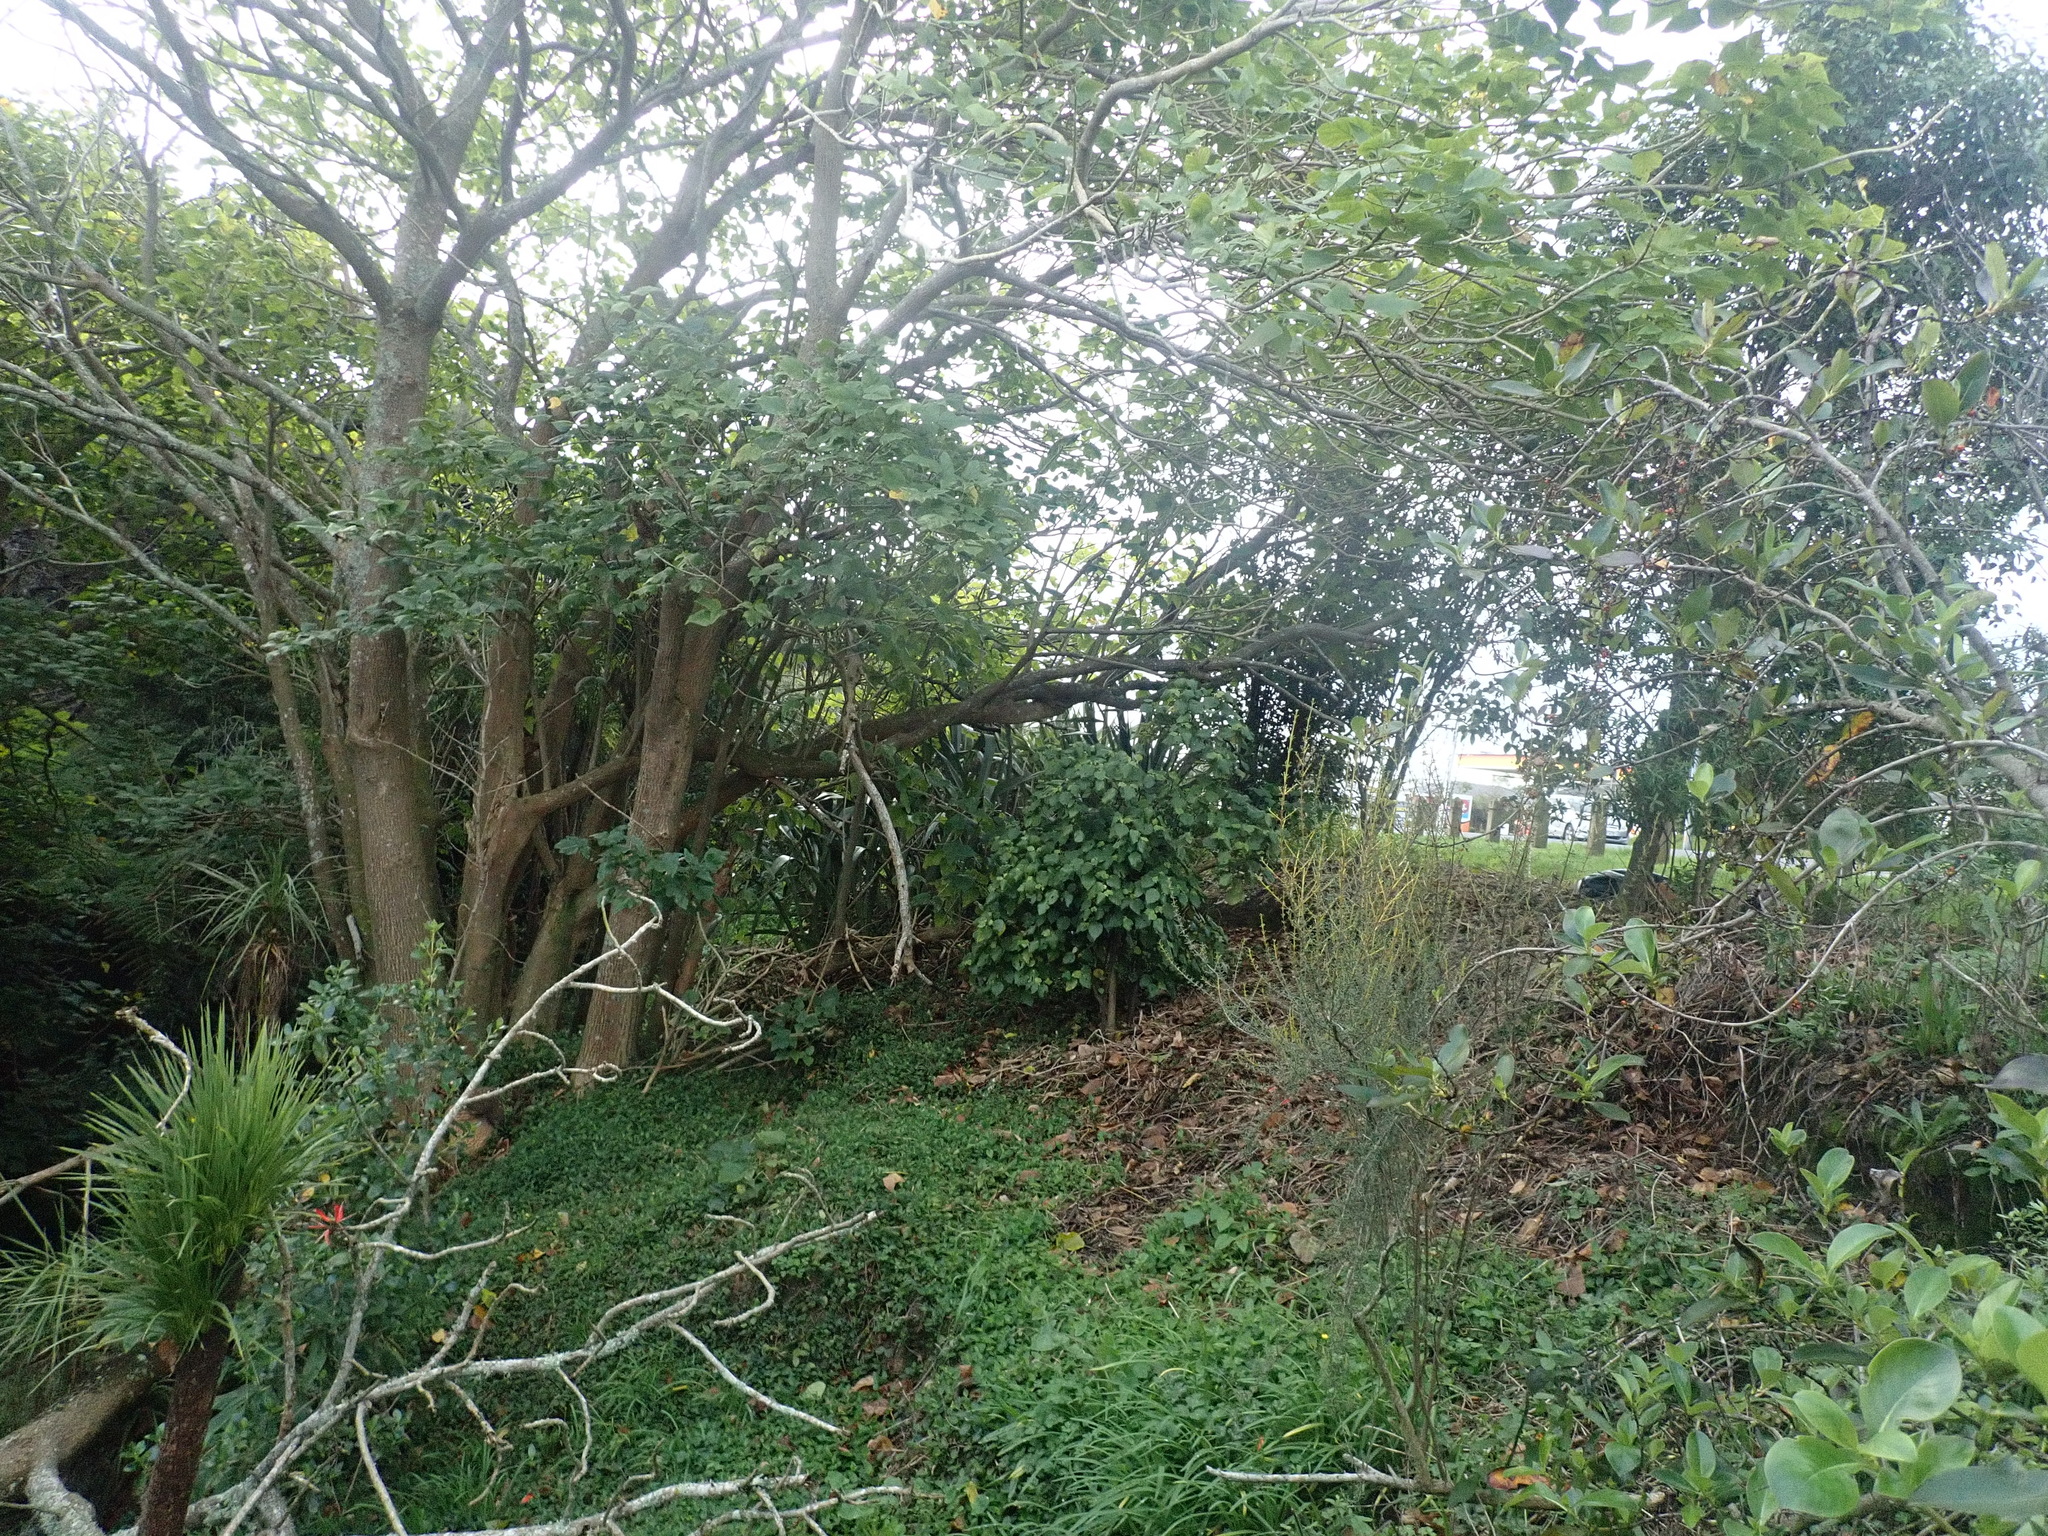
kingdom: Plantae
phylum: Tracheophyta
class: Magnoliopsida
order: Piperales
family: Piperaceae
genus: Macropiper
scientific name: Macropiper excelsum
